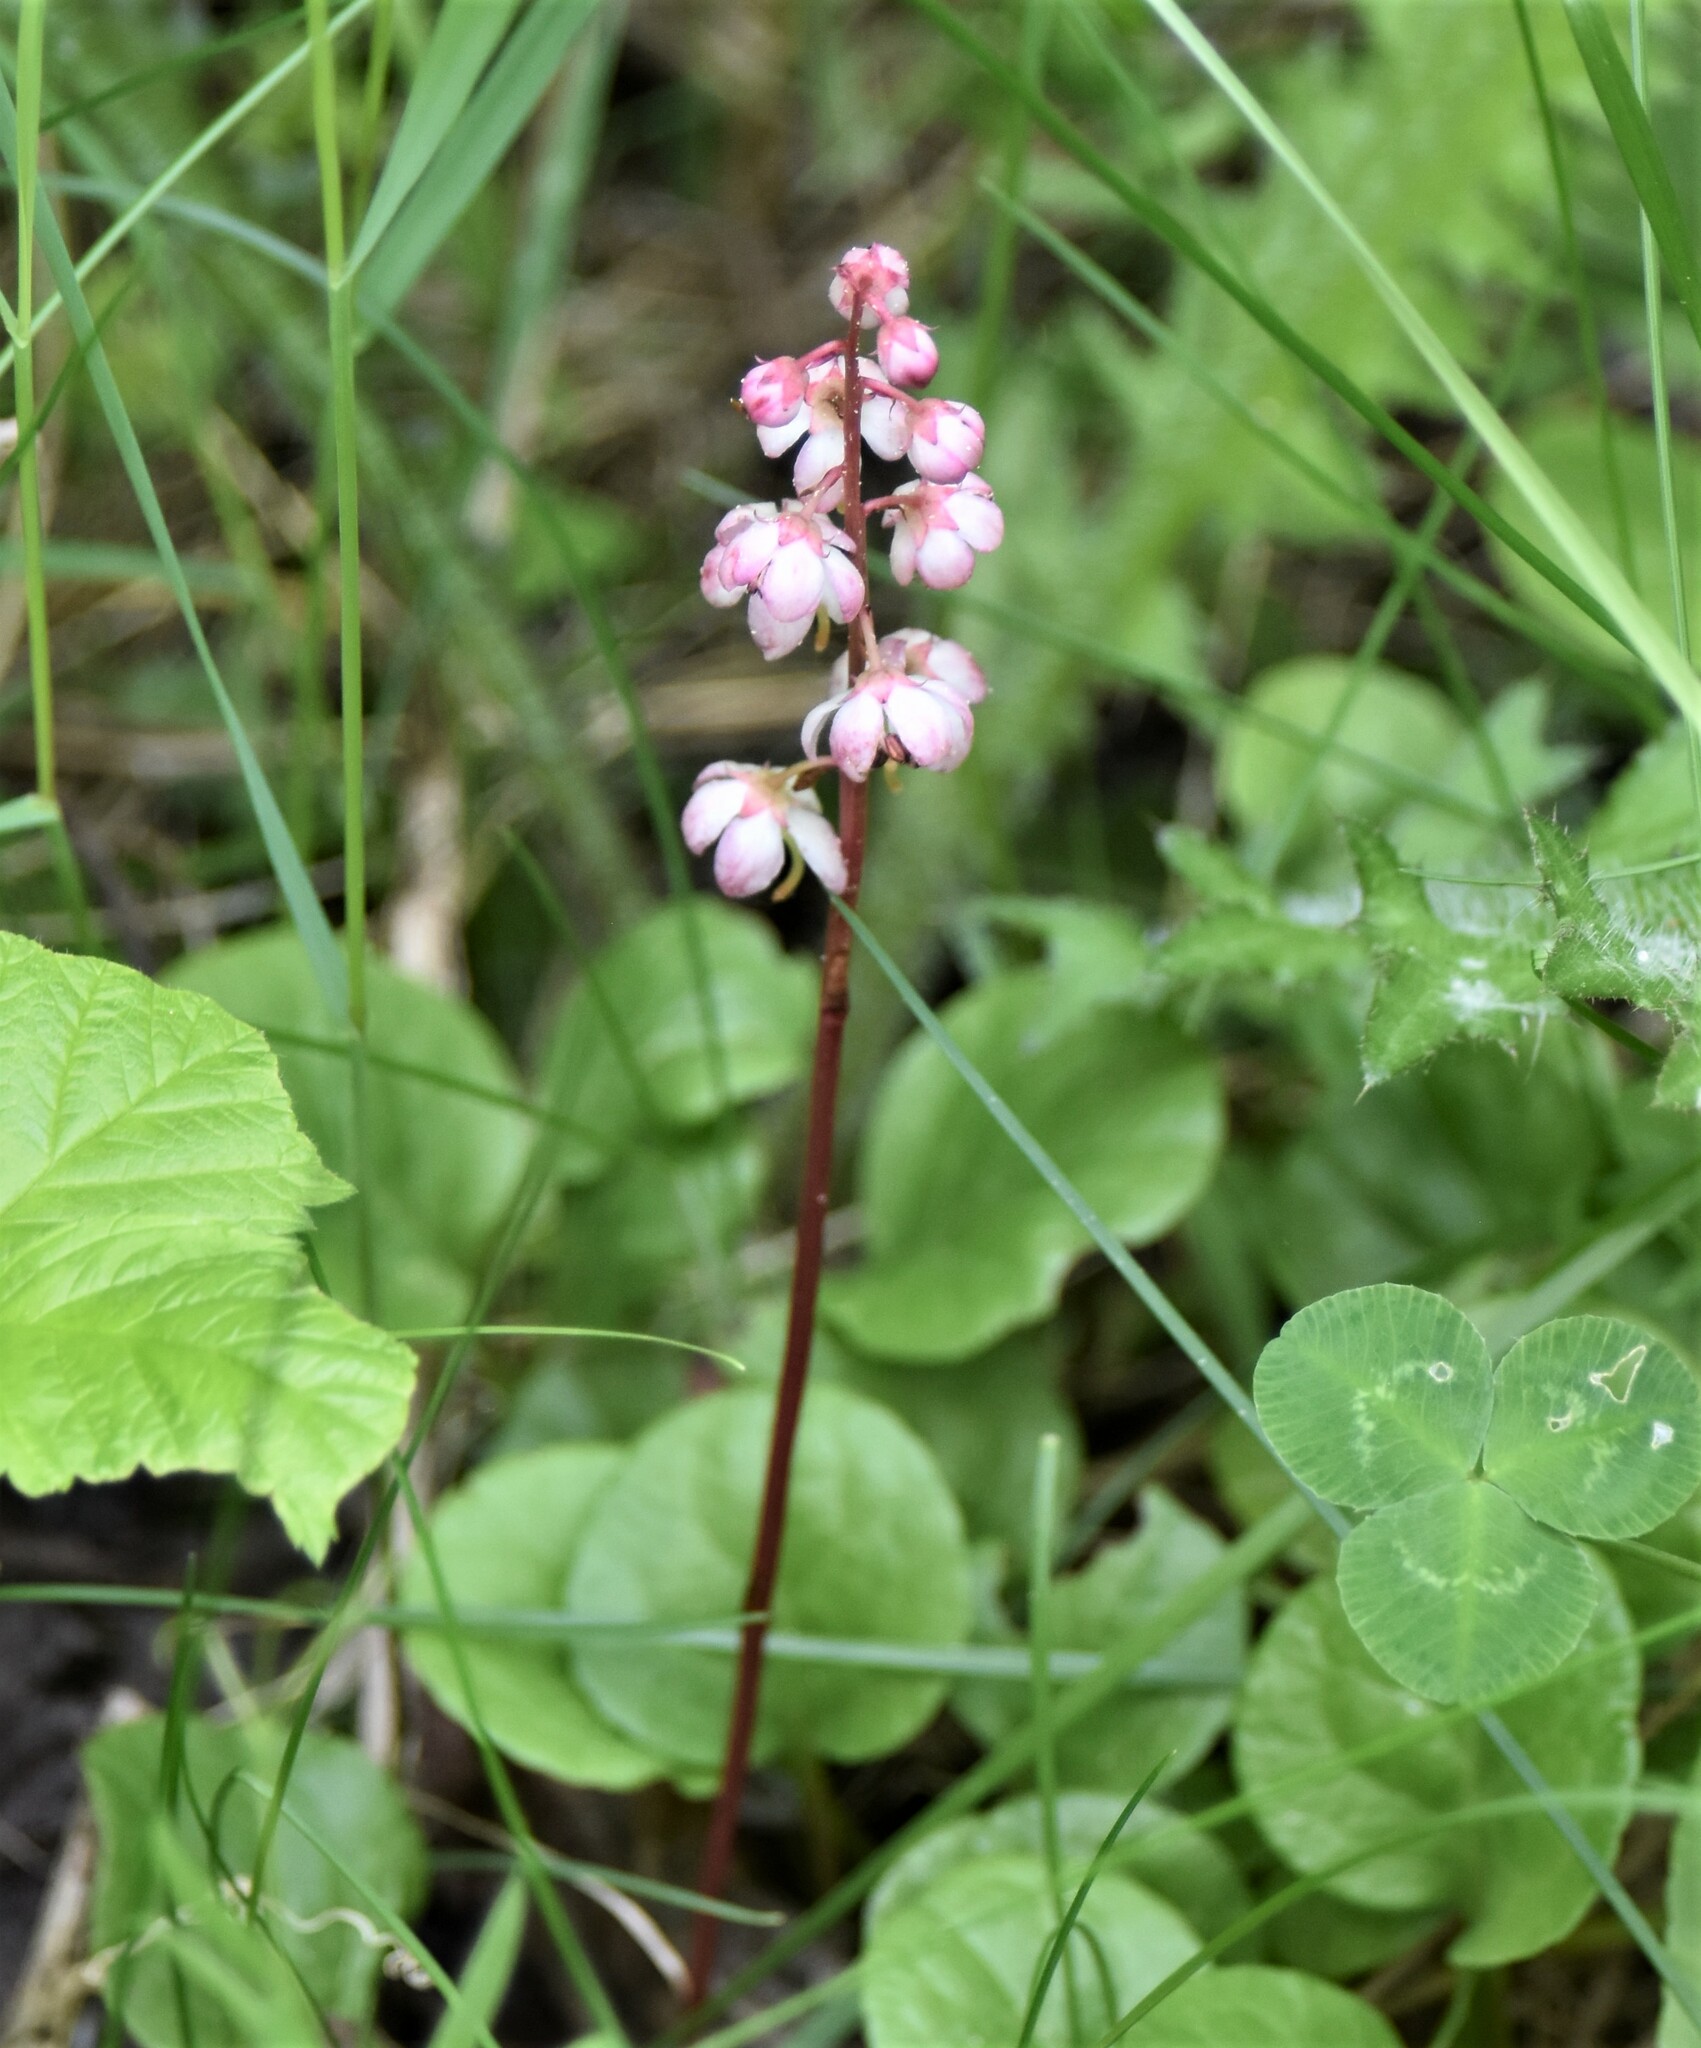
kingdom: Plantae
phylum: Tracheophyta
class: Magnoliopsida
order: Ericales
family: Ericaceae
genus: Pyrola
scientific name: Pyrola asarifolia
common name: Bog wintergreen
